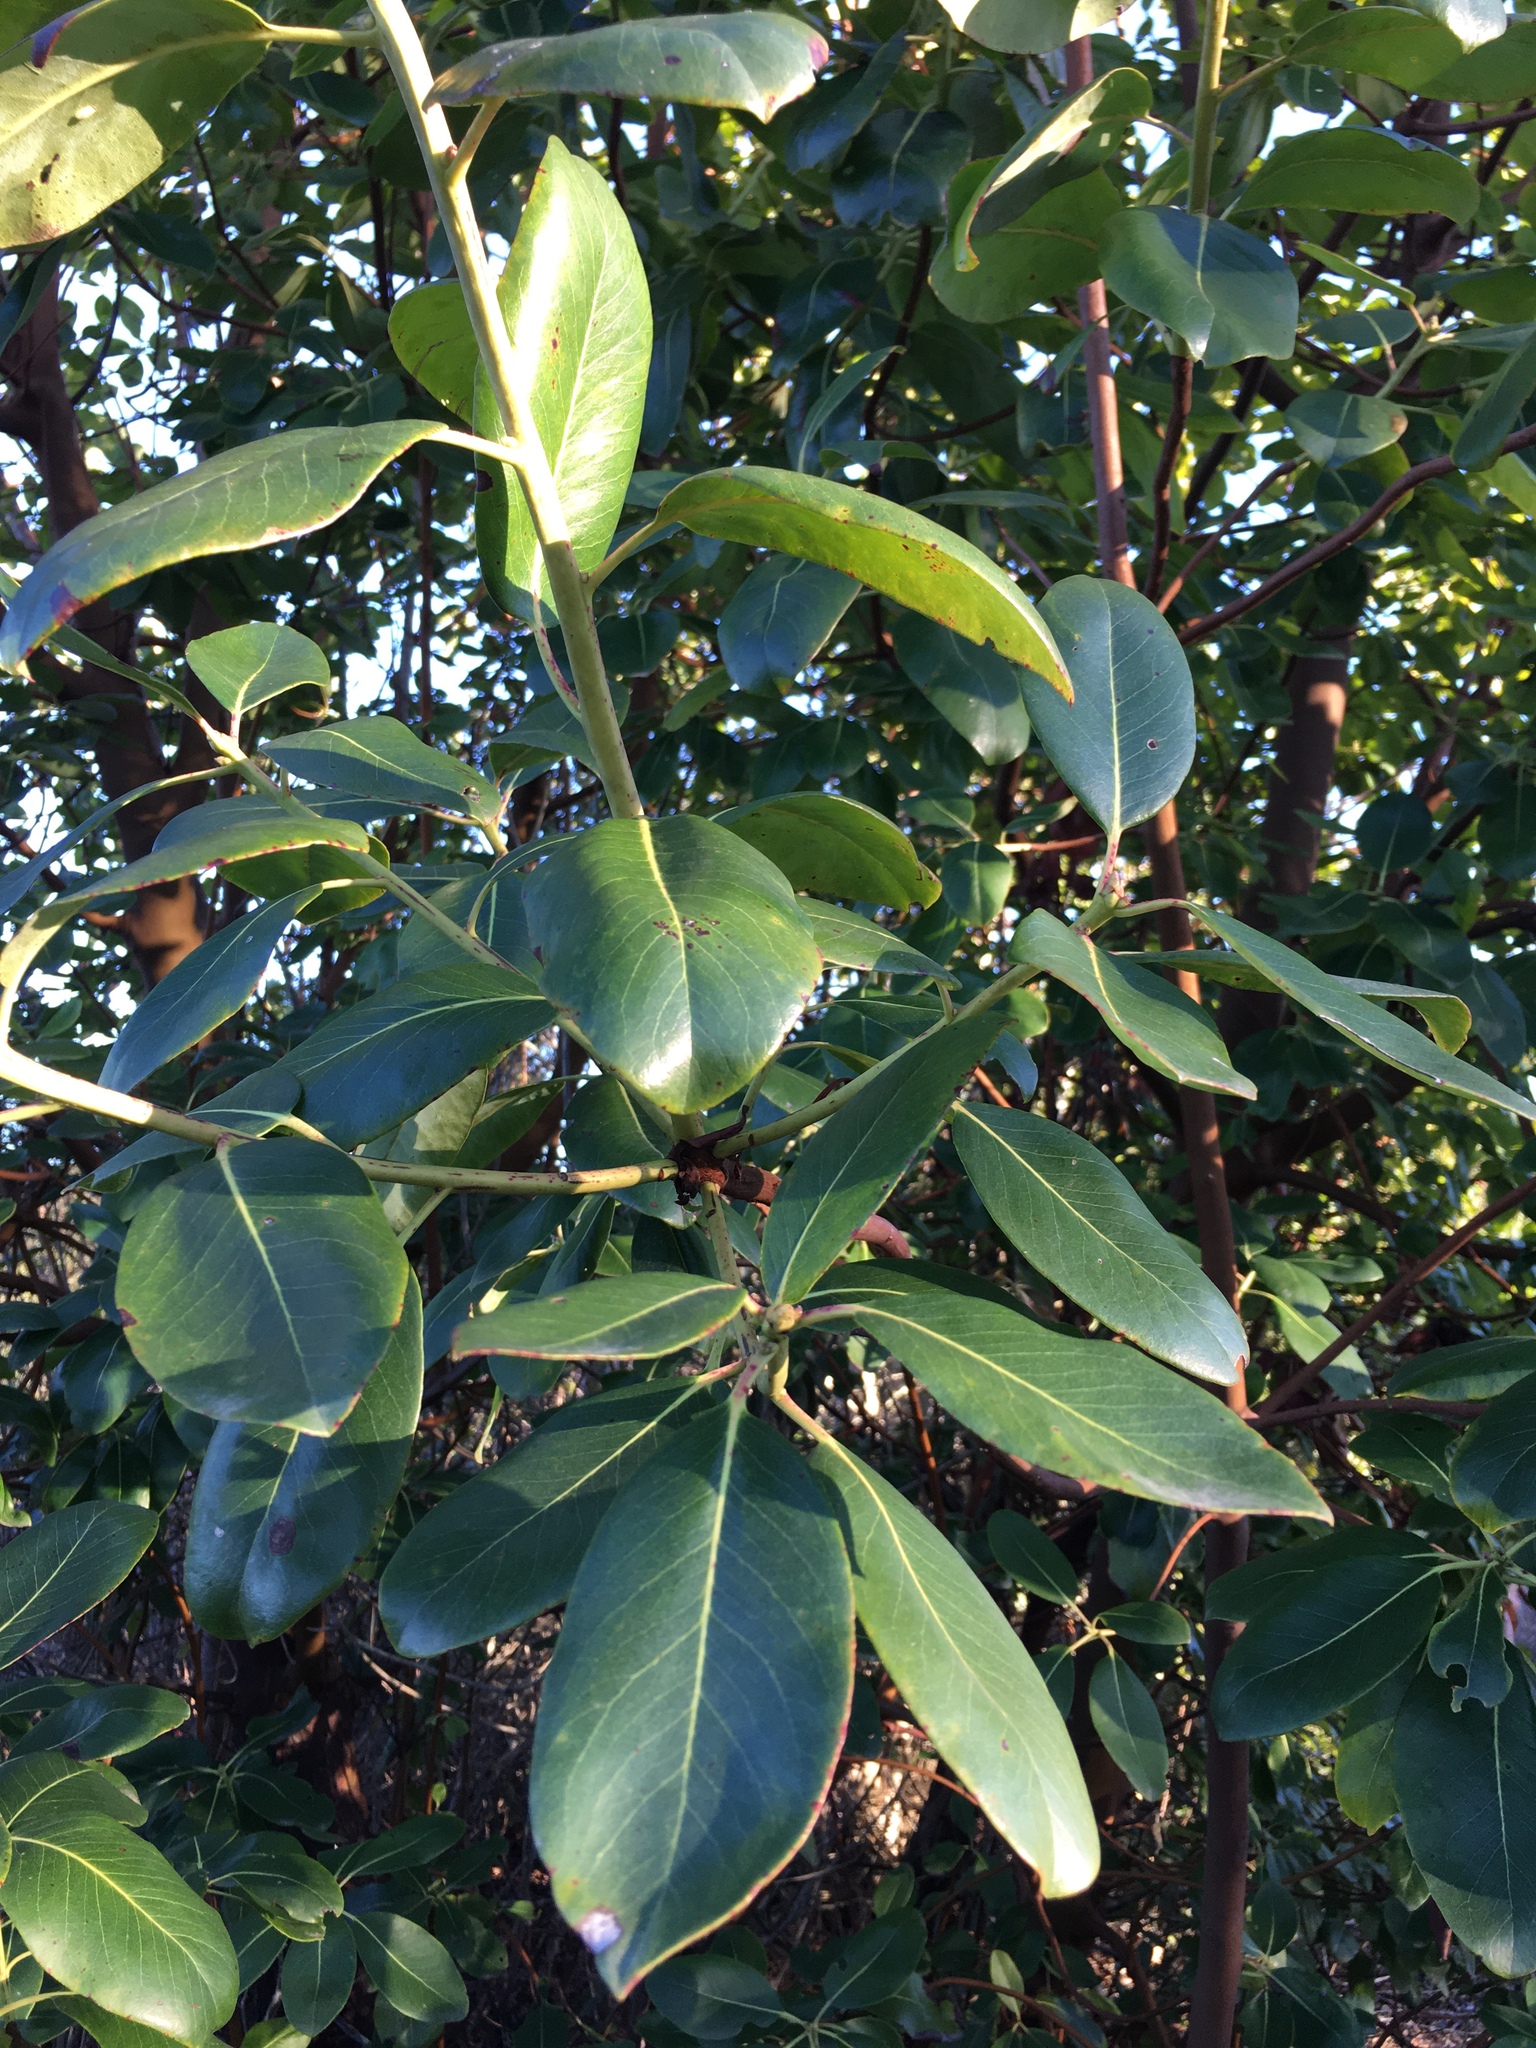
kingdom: Plantae
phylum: Tracheophyta
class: Magnoliopsida
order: Ericales
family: Ericaceae
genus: Arbutus
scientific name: Arbutus menziesii
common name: Pacific madrone
